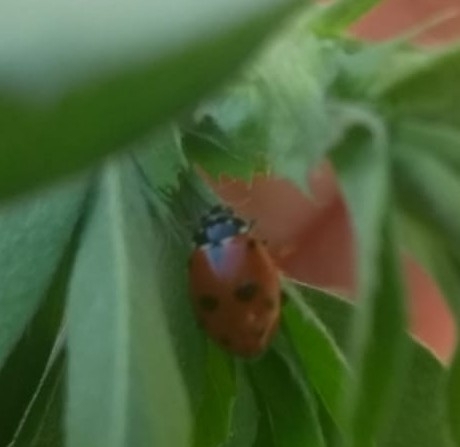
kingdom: Animalia
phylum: Arthropoda
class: Insecta
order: Coleoptera
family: Coccinellidae
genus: Hippodamia
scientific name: Hippodamia variegata
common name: Ladybird beetle
